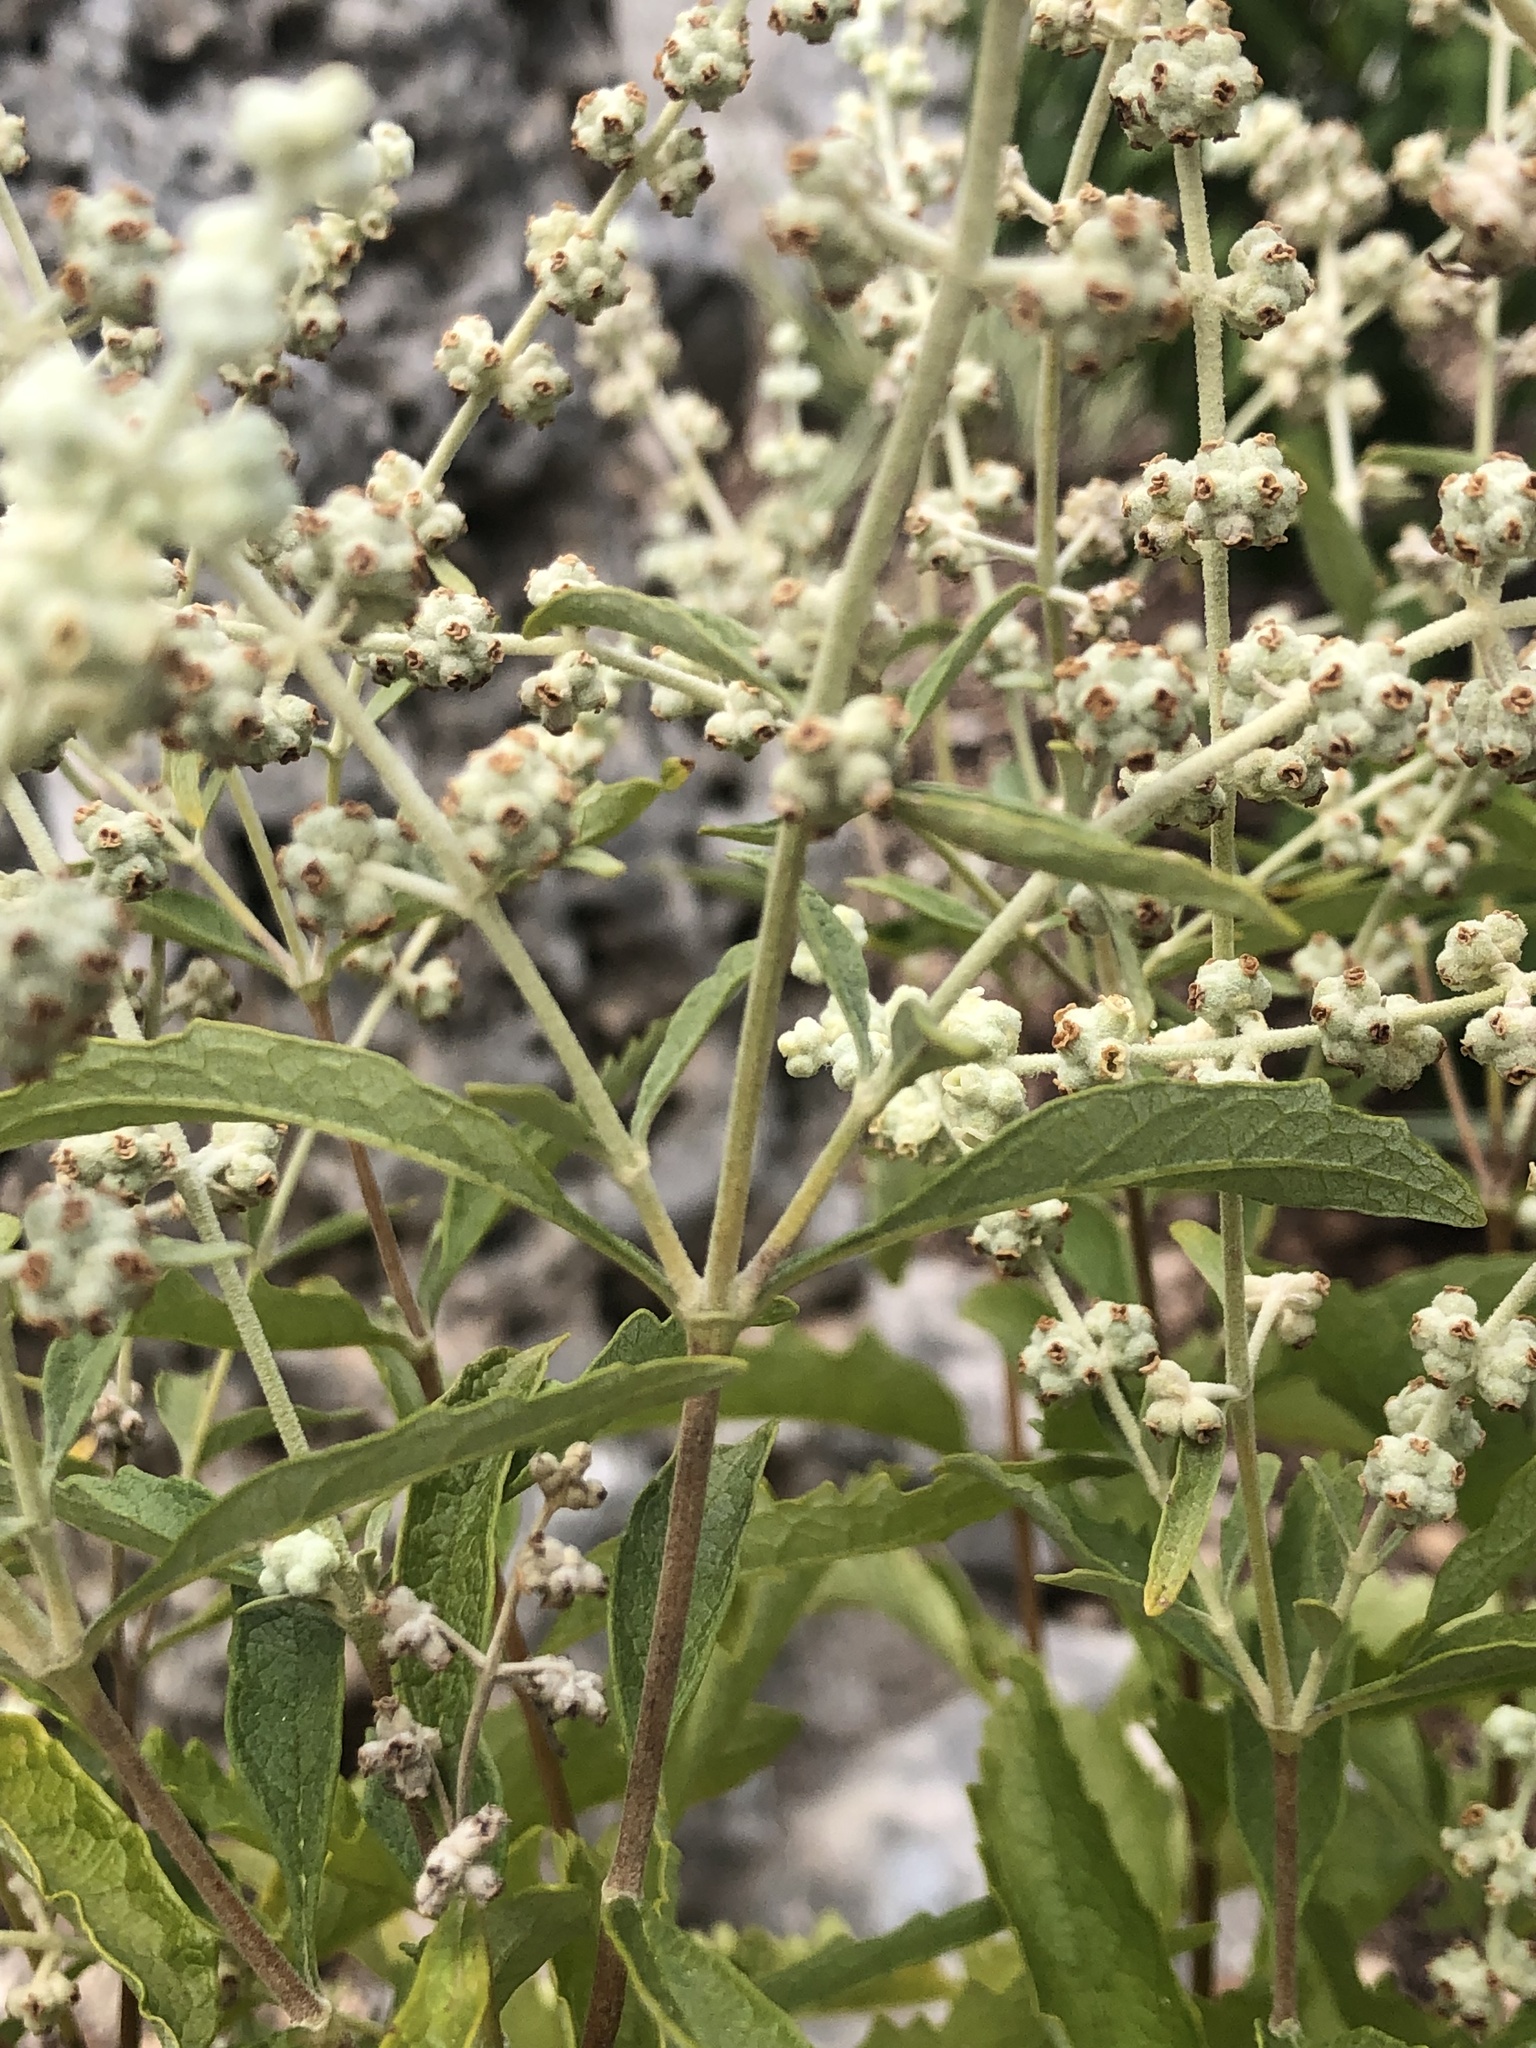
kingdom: Plantae
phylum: Tracheophyta
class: Magnoliopsida
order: Lamiales
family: Scrophulariaceae
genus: Buddleja
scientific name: Buddleja racemosa
